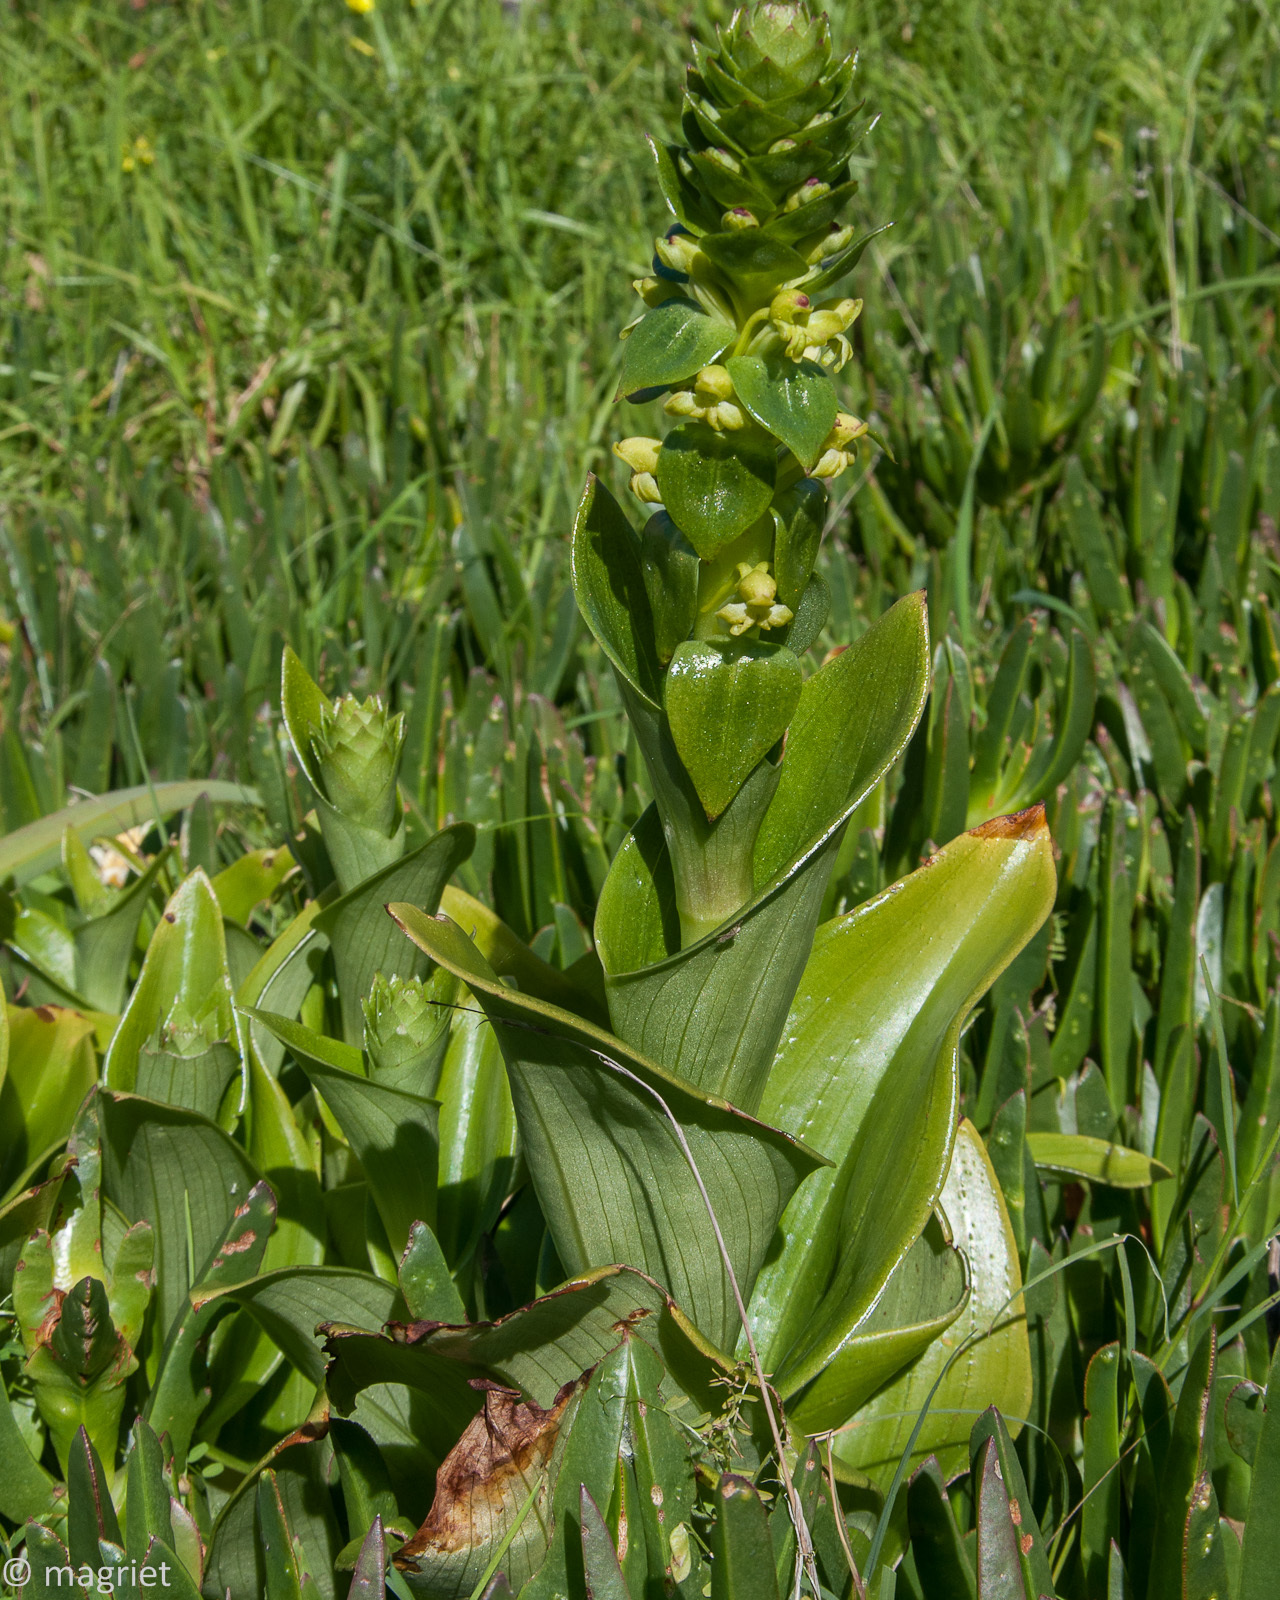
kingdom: Plantae
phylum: Tracheophyta
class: Liliopsida
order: Asparagales
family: Orchidaceae
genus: Satyrium
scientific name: Satyrium odorum
